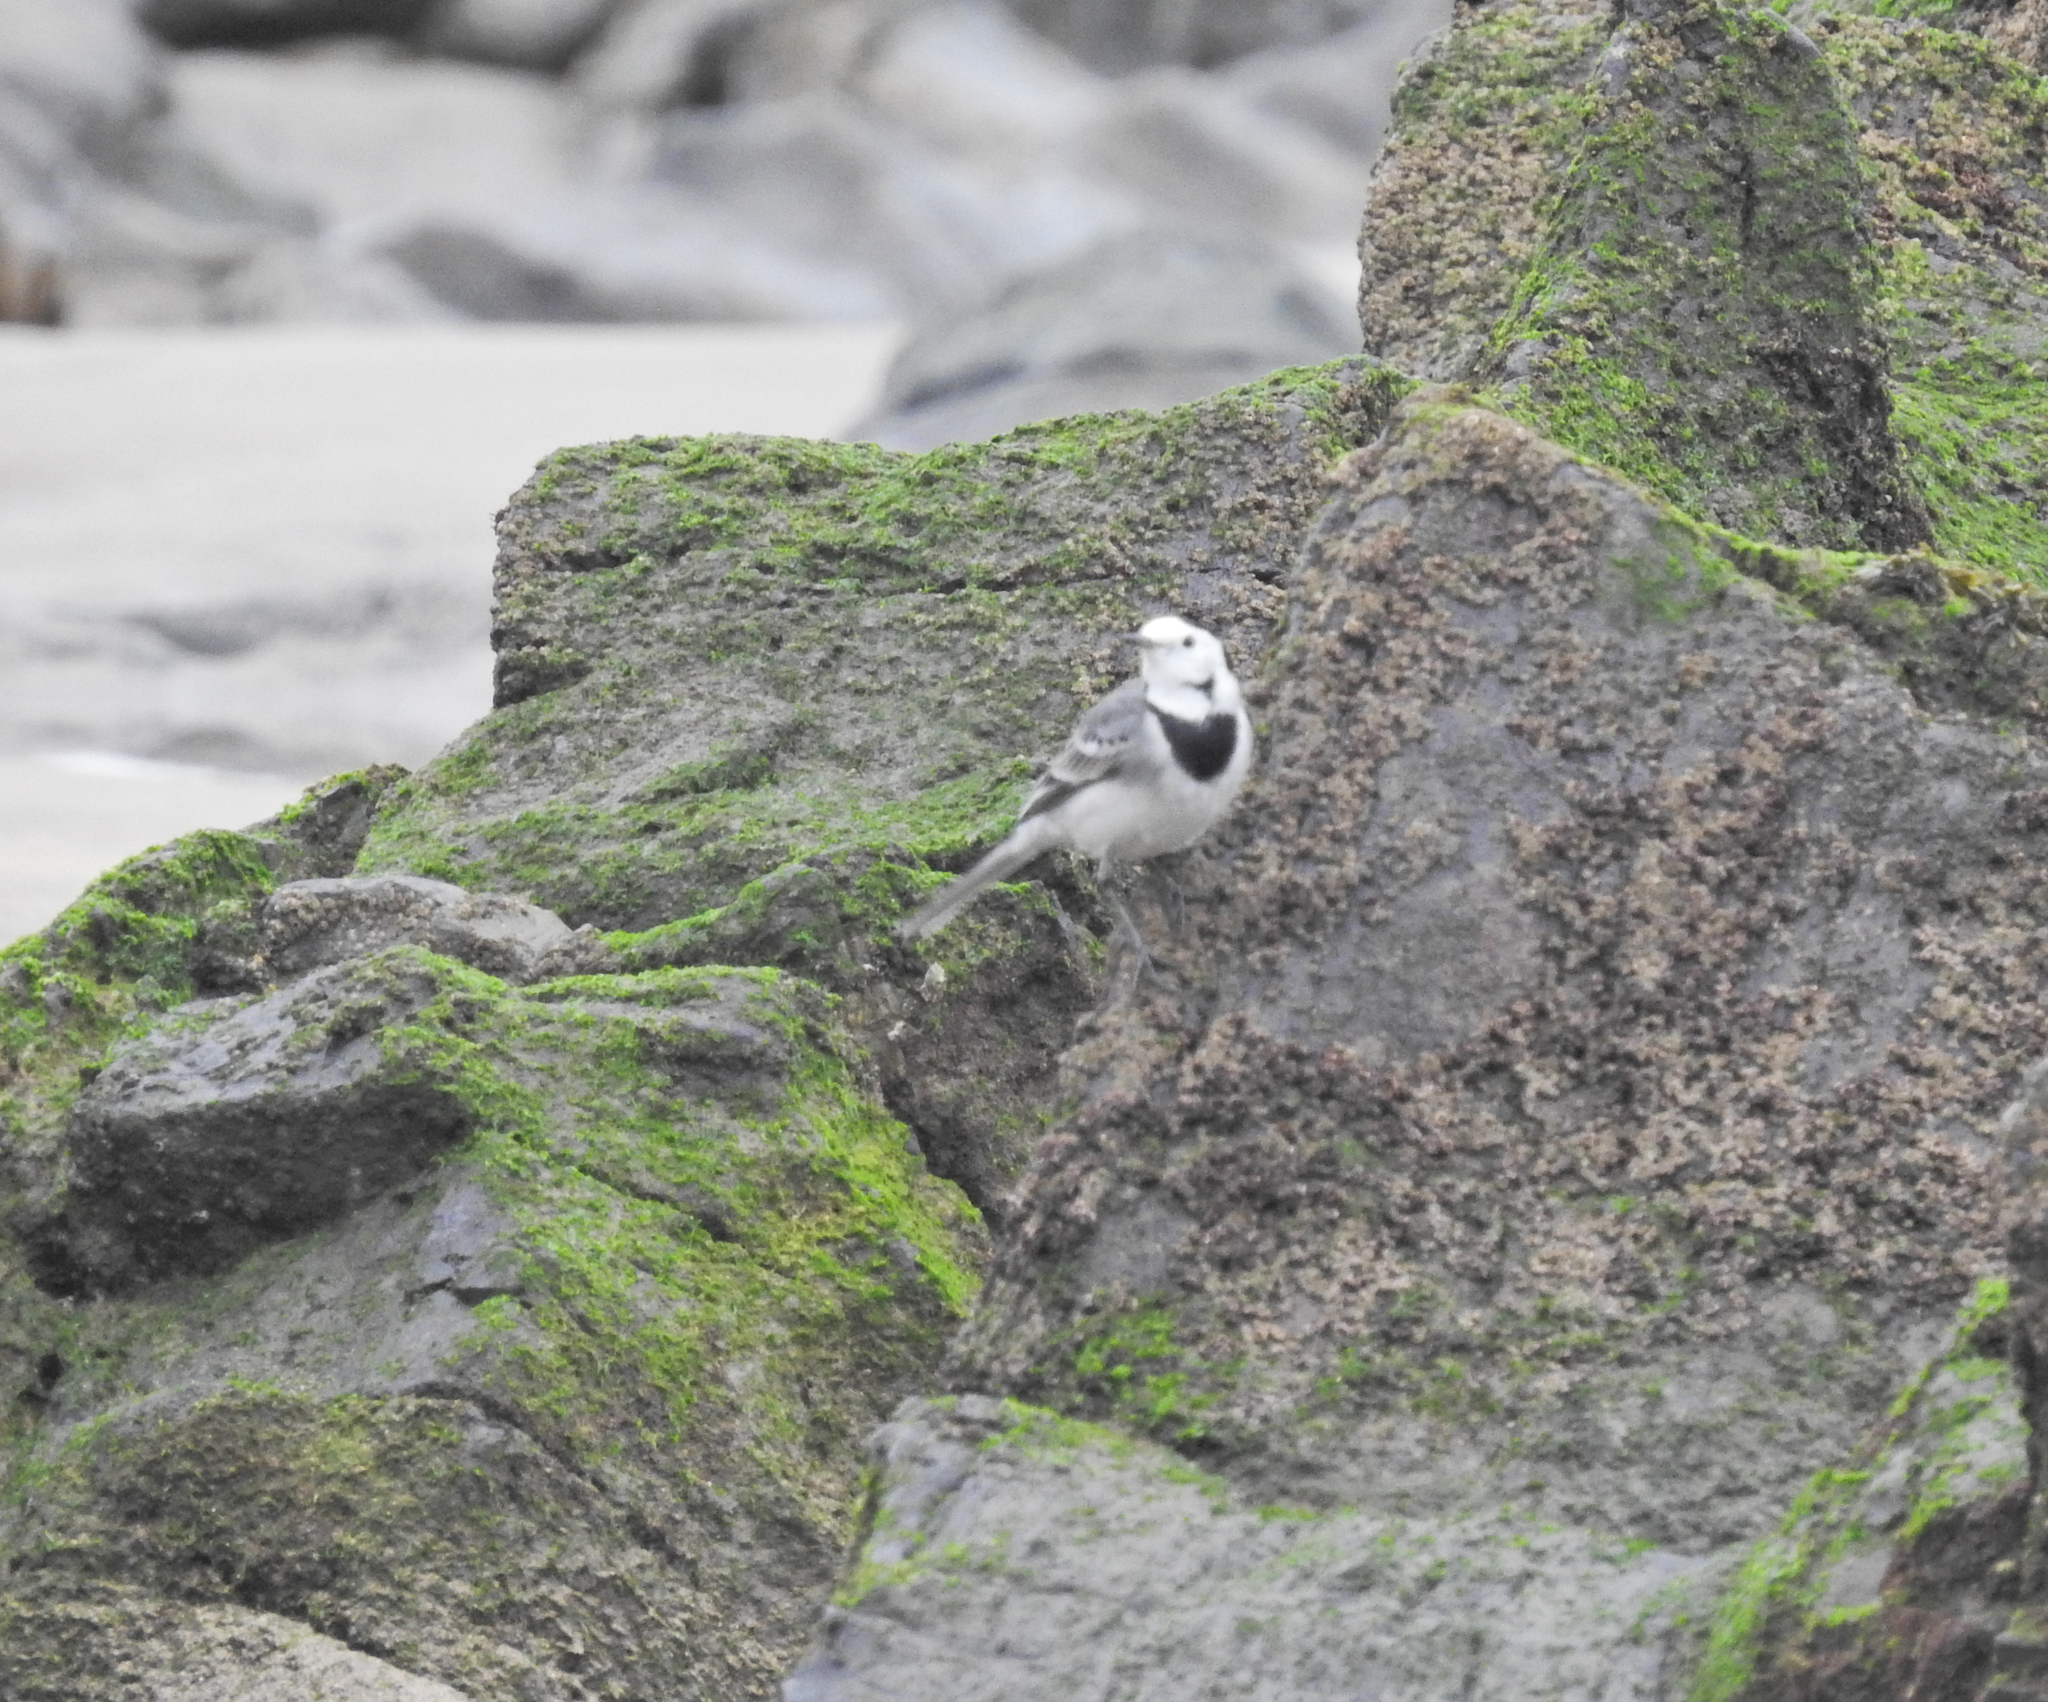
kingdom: Animalia
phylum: Chordata
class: Aves
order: Passeriformes
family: Motacillidae
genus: Motacilla
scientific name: Motacilla alba
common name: White wagtail
